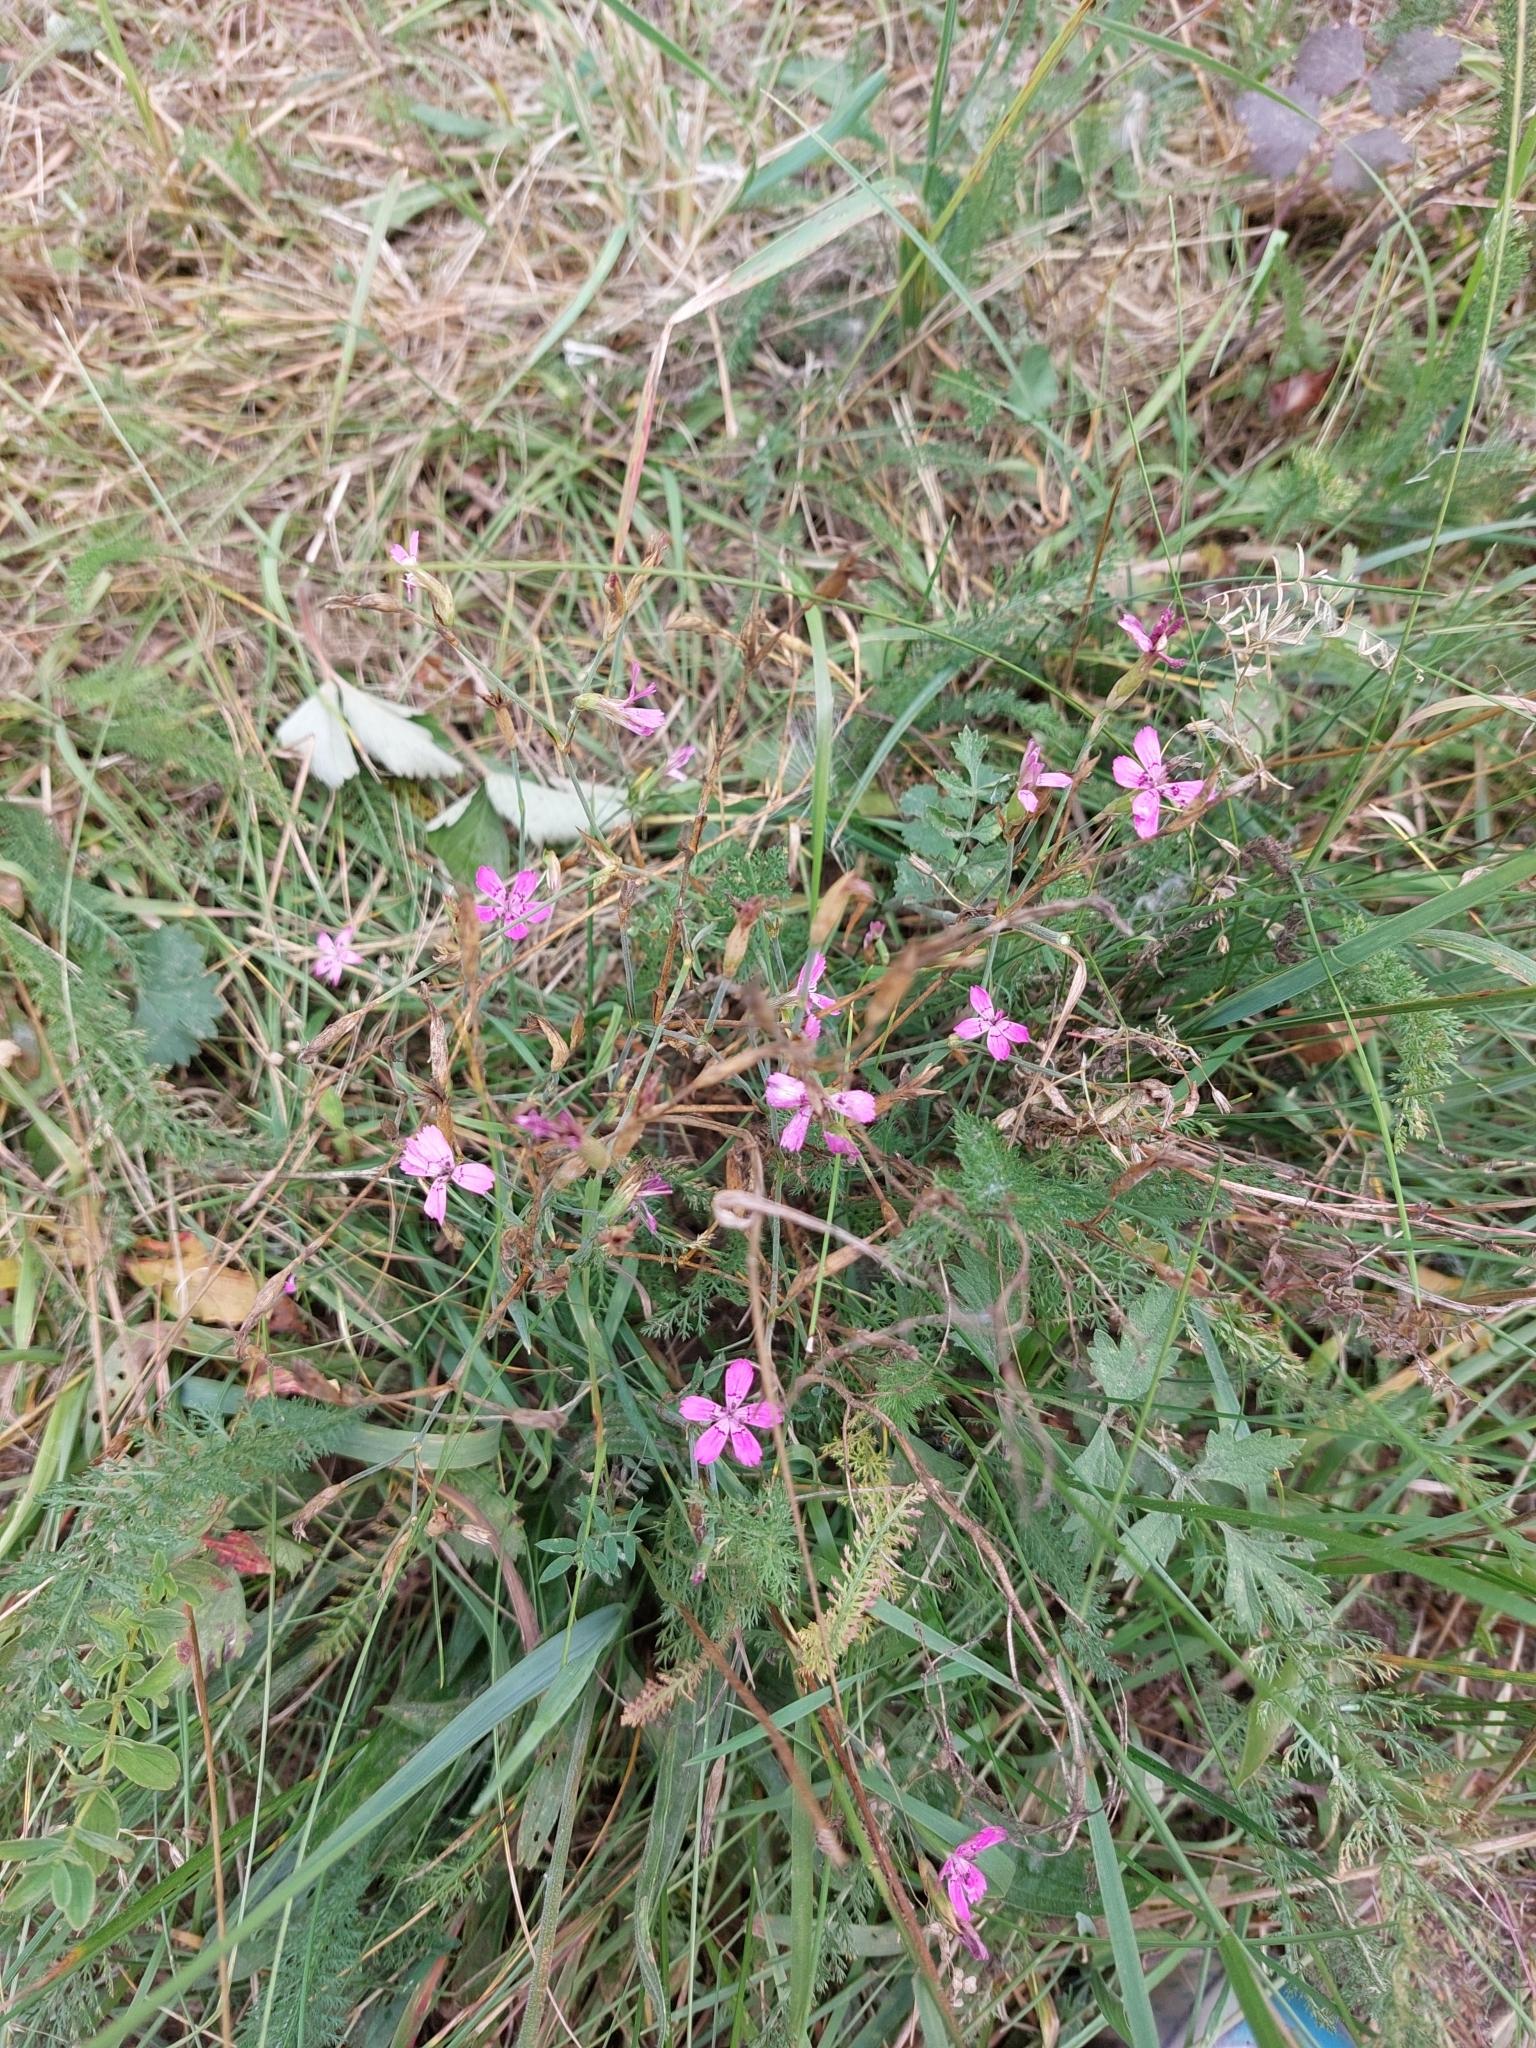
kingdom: Plantae
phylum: Tracheophyta
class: Magnoliopsida
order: Caryophyllales
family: Caryophyllaceae
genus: Dianthus
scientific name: Dianthus deltoides
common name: Maiden pink
